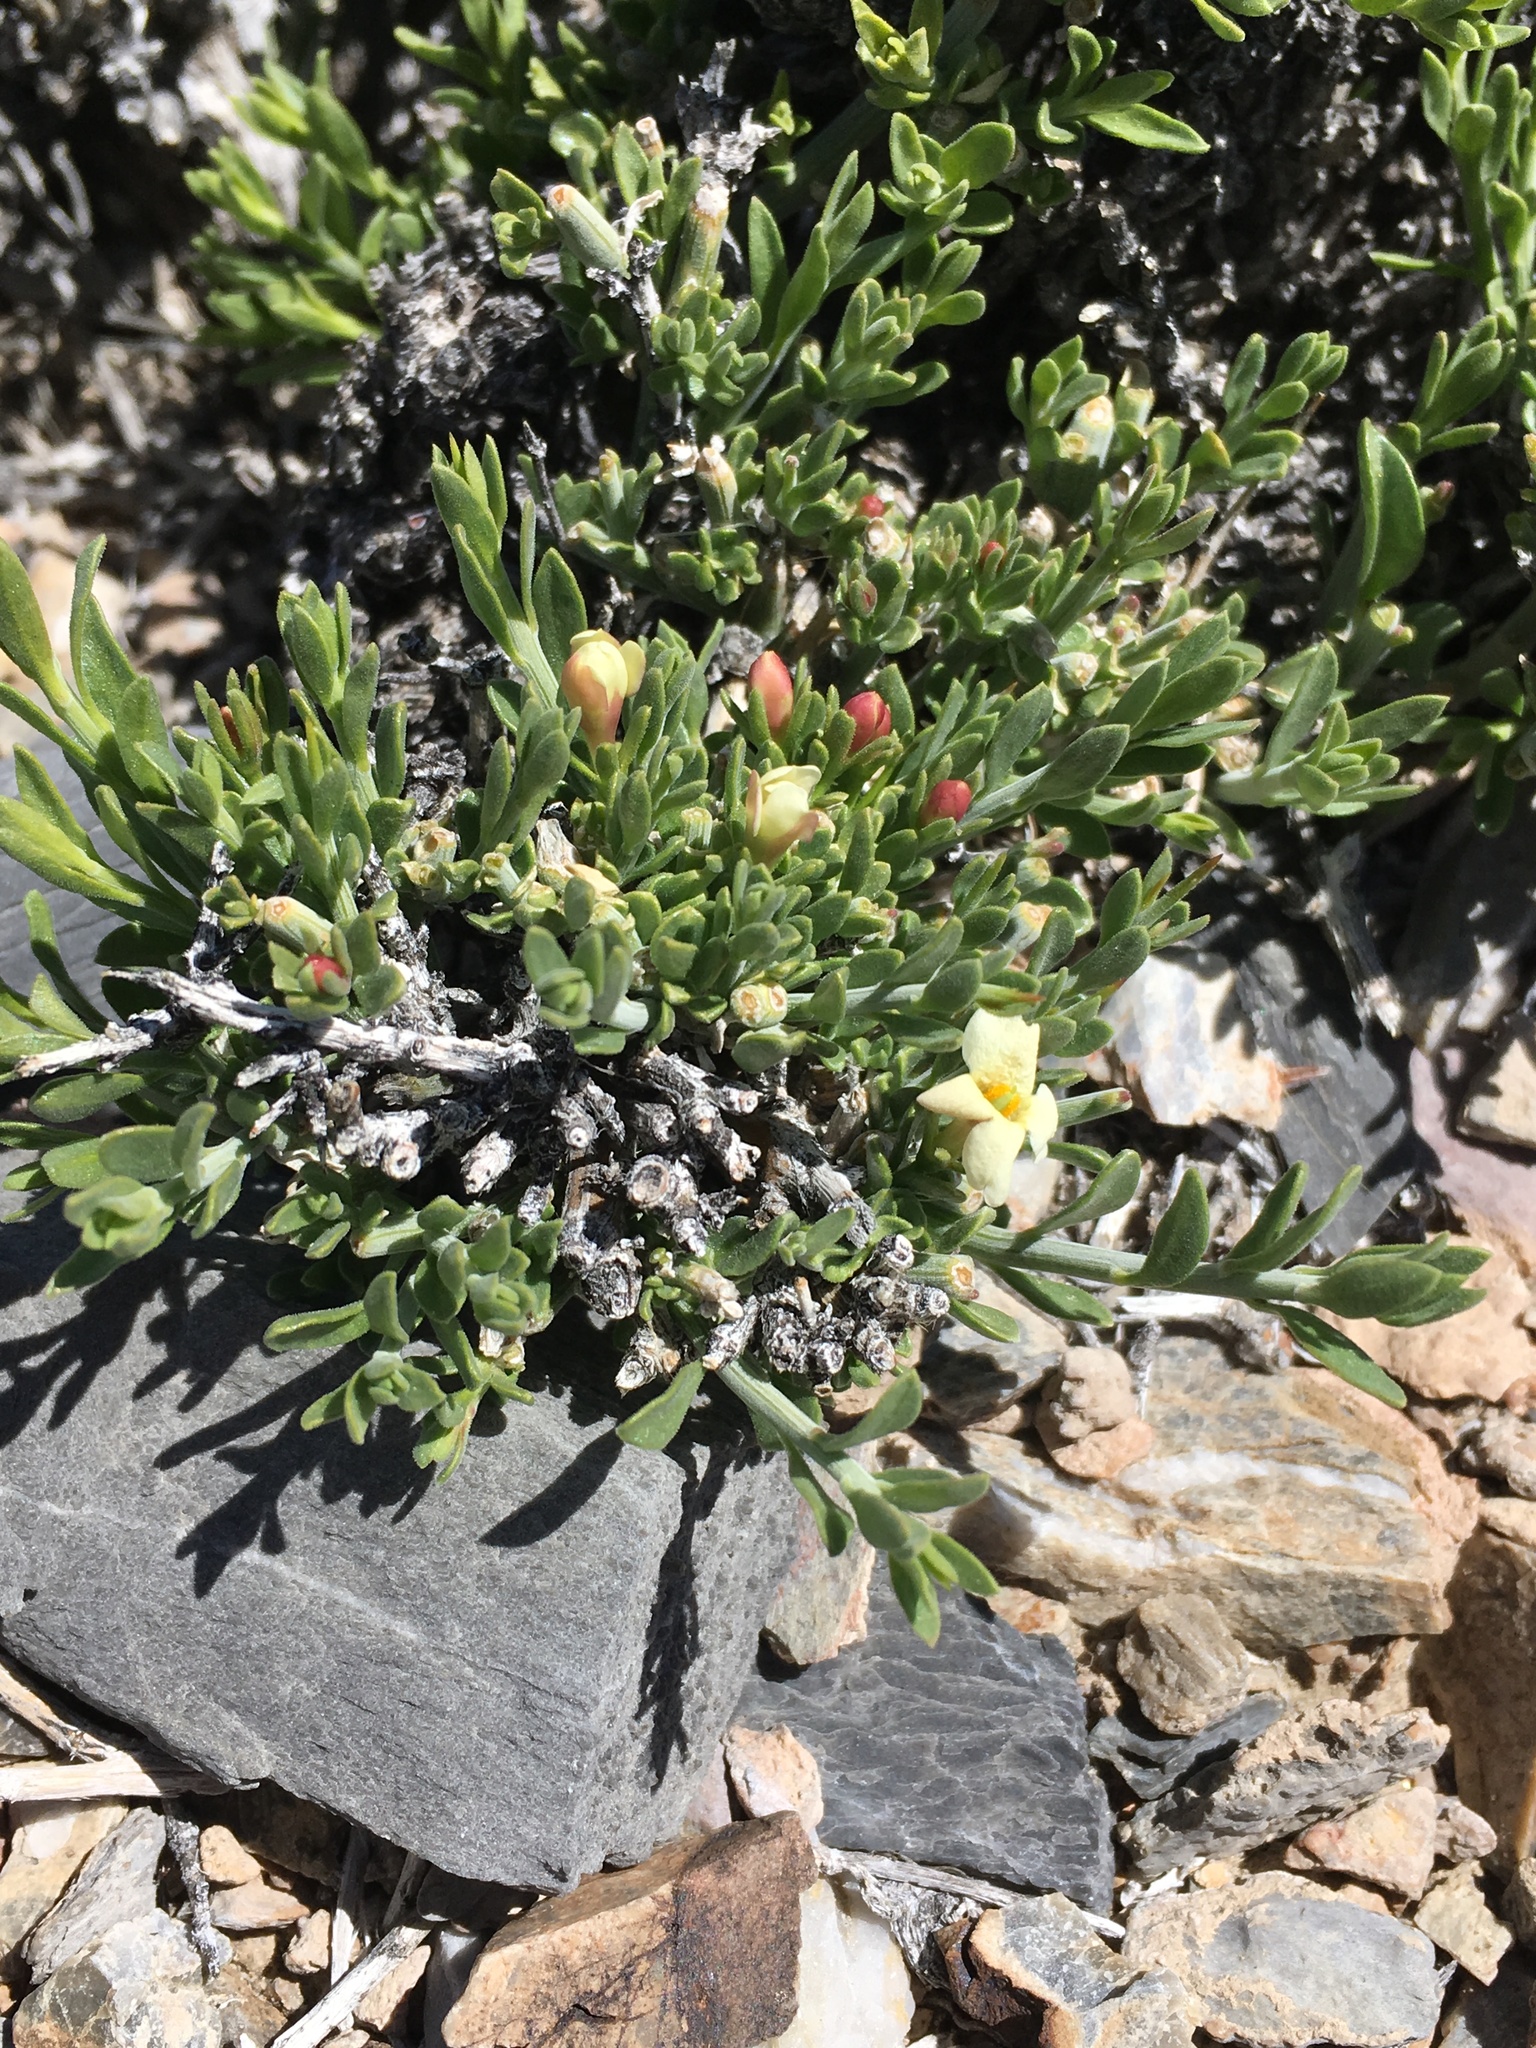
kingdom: Plantae
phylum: Tracheophyta
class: Magnoliopsida
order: Lamiales
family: Oleaceae
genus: Menodora
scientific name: Menodora spinescens
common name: Spiny menodora
